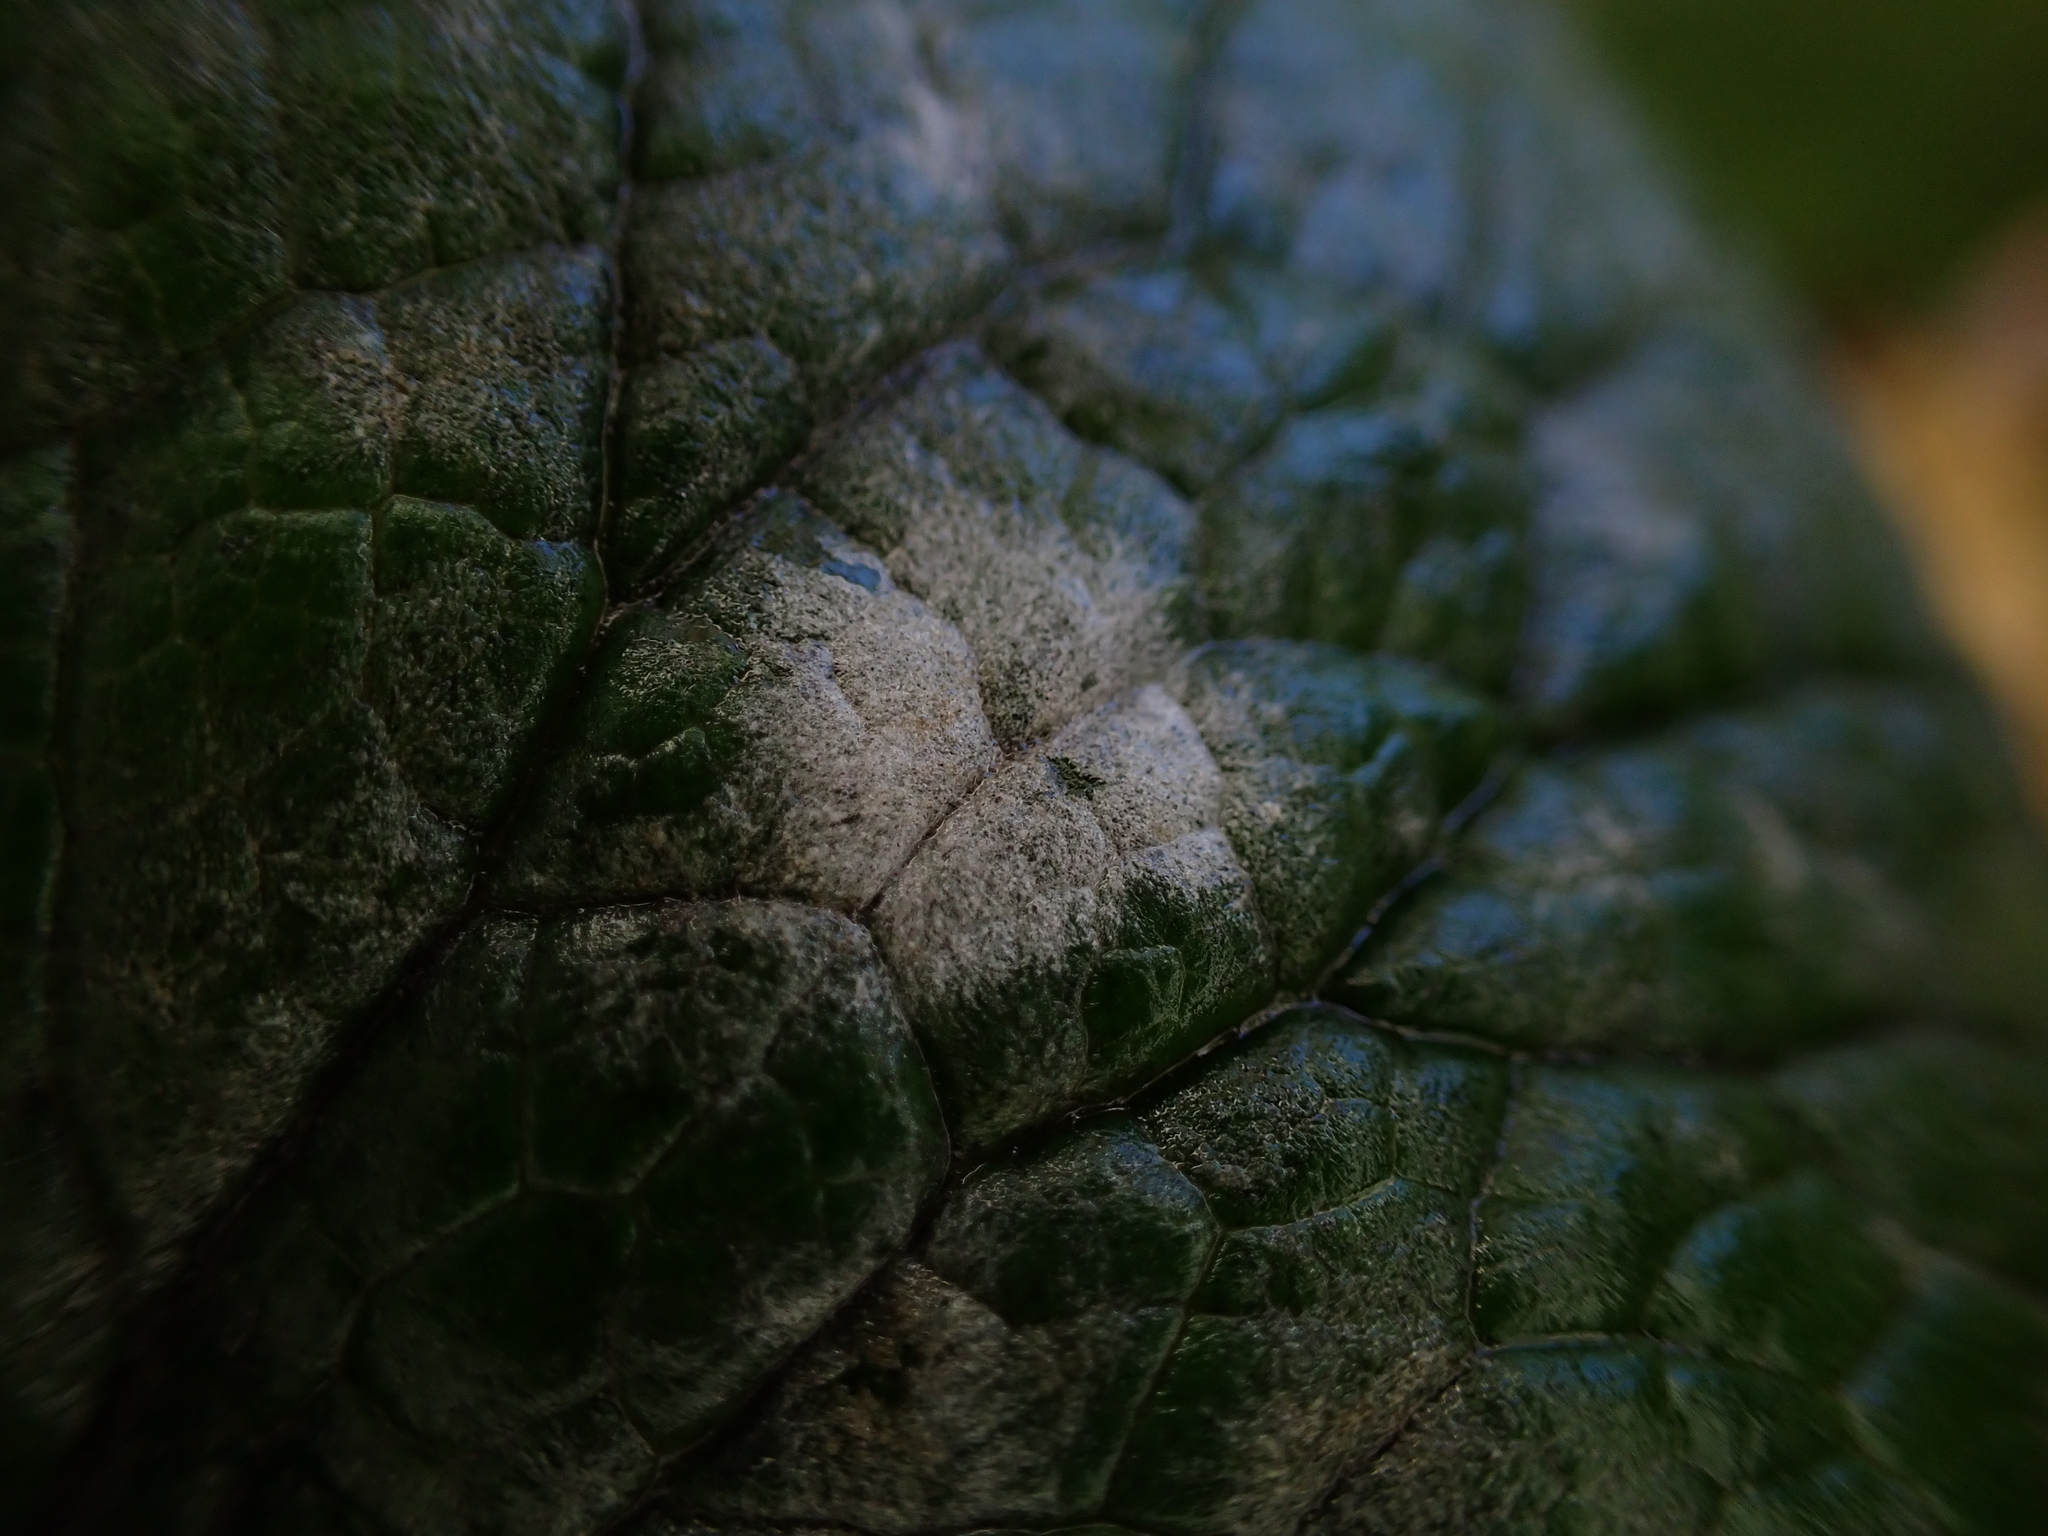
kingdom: Fungi
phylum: Ascomycota
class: Leotiomycetes
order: Helotiales
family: Erysiphaceae
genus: Erysiphe
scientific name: Erysiphe cruciferarum
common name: Brassica powdery mildew
